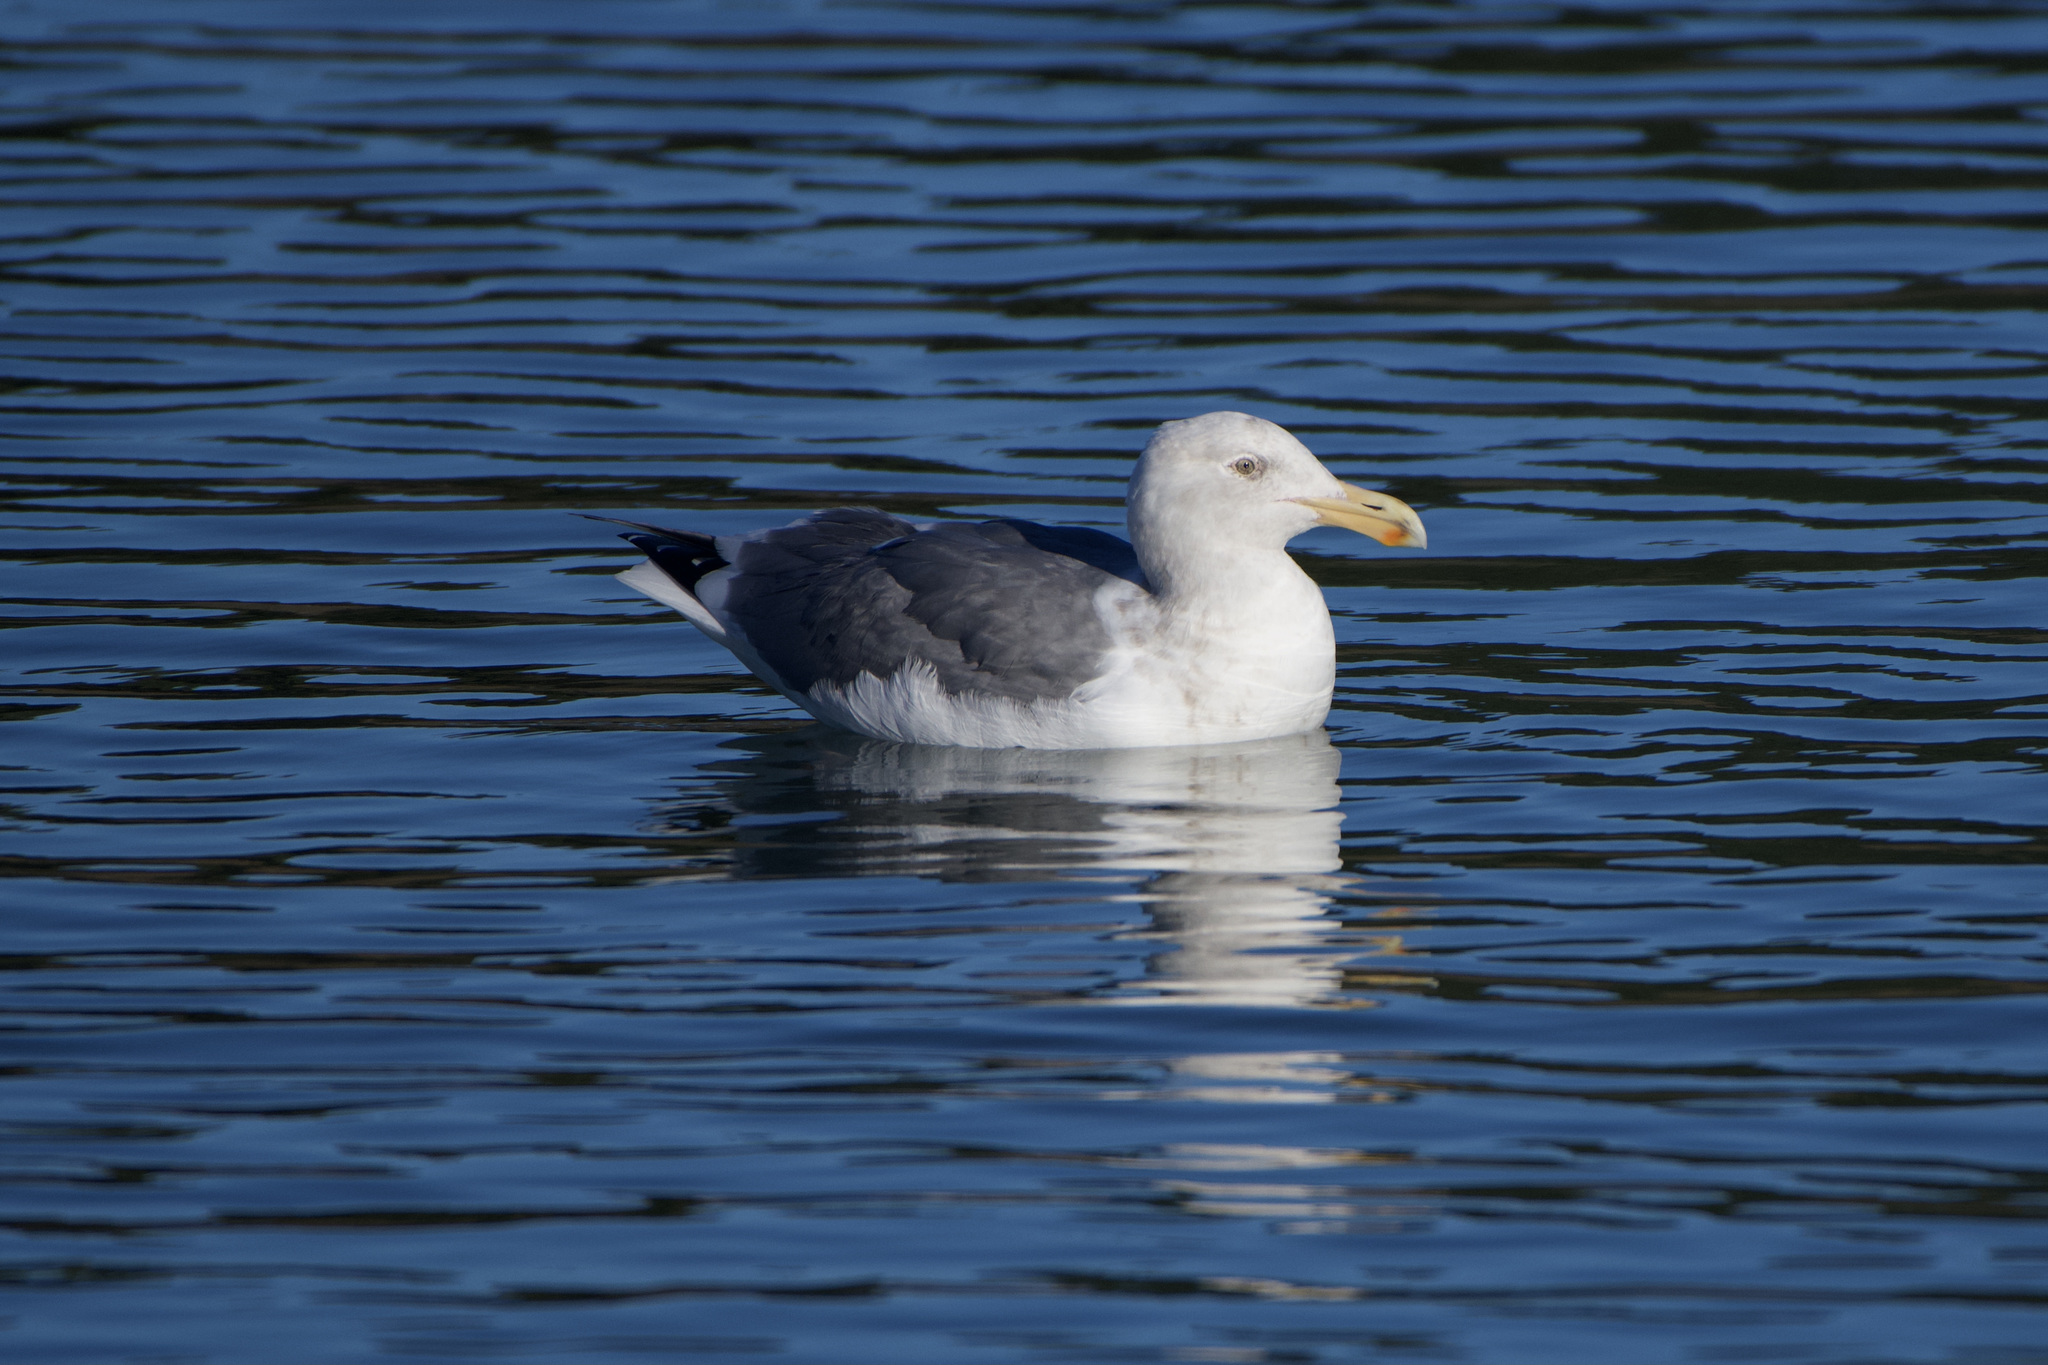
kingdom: Animalia
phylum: Chordata
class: Aves
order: Charadriiformes
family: Laridae
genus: Larus
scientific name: Larus
